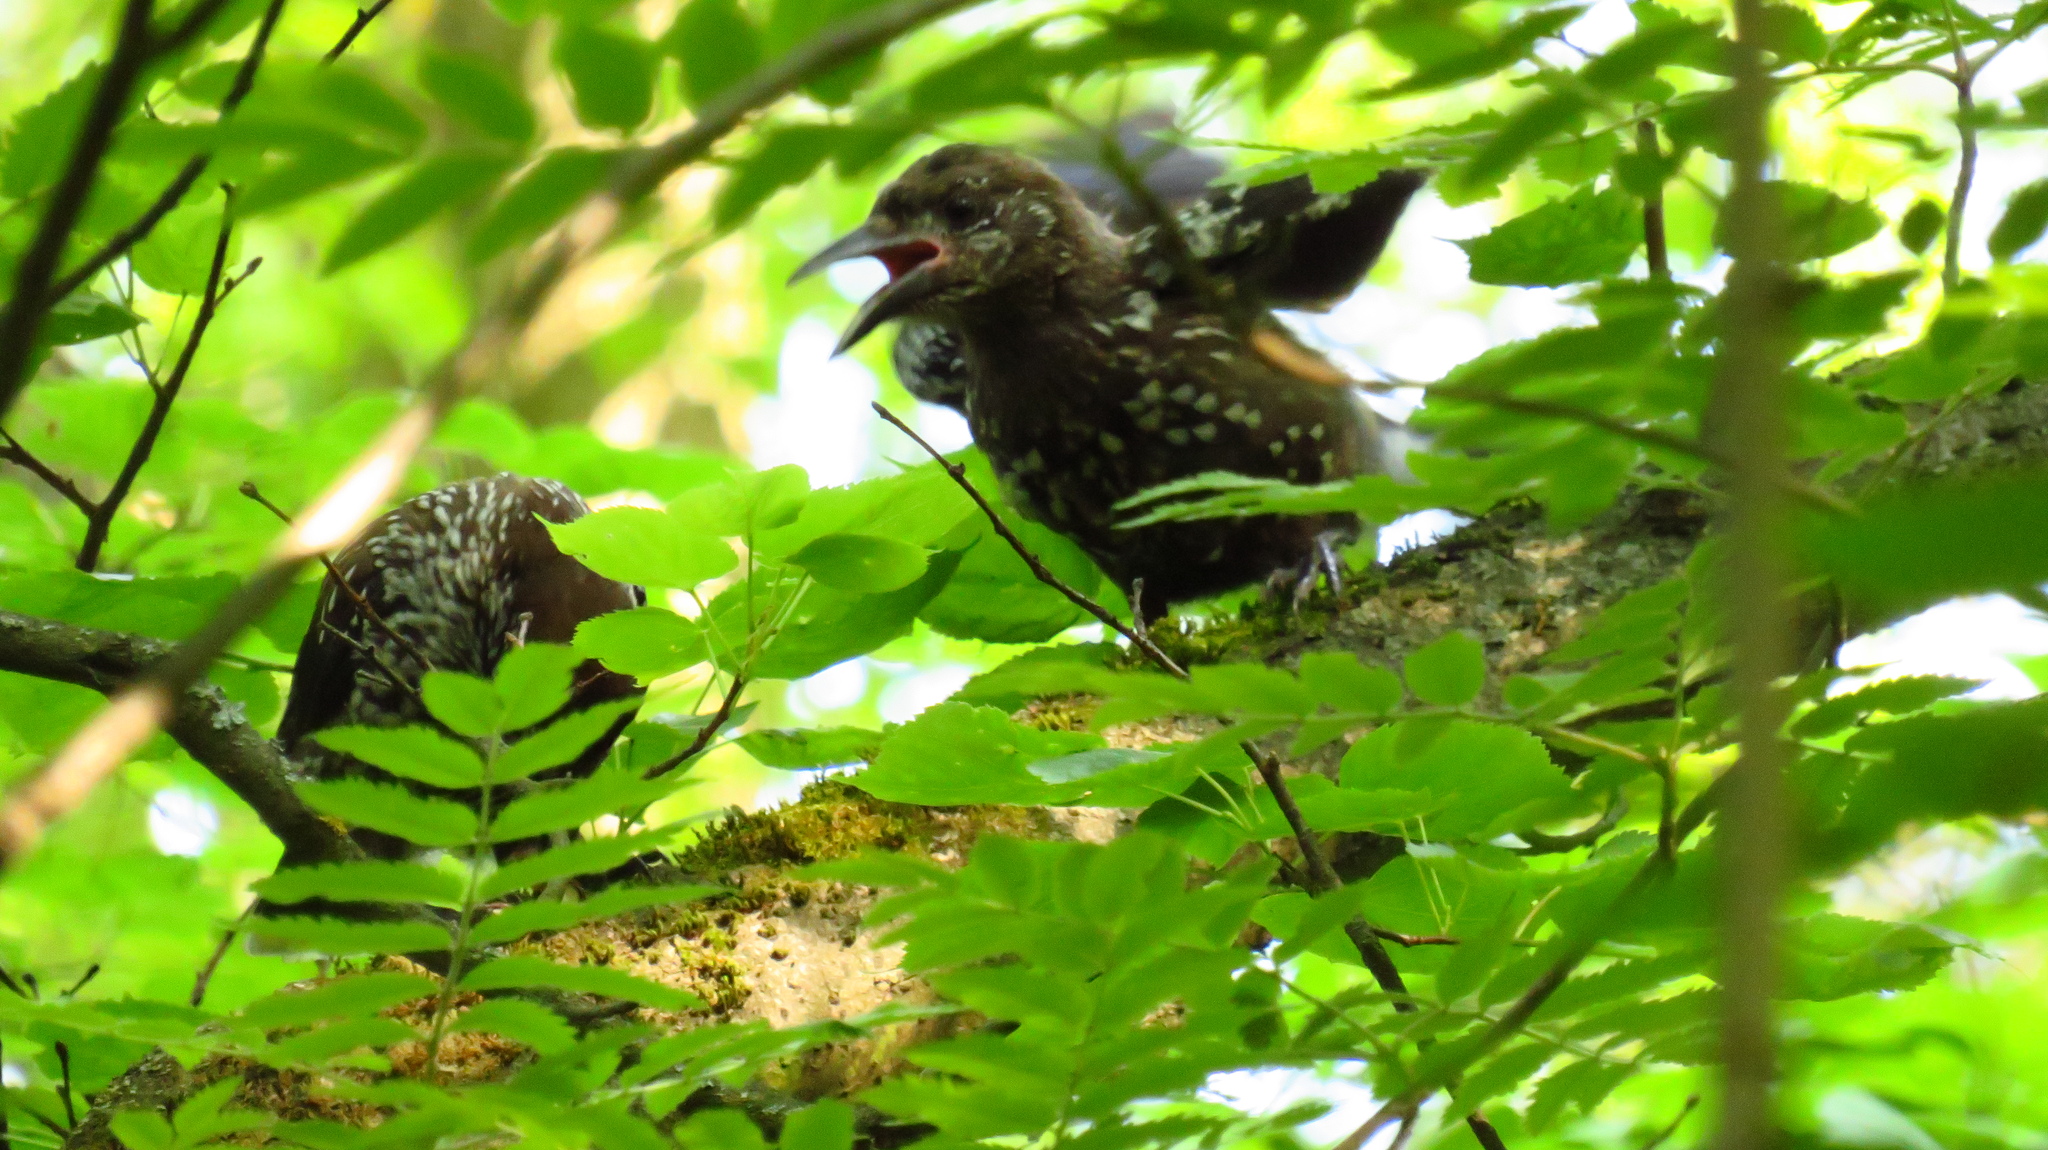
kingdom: Animalia
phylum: Chordata
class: Aves
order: Passeriformes
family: Corvidae
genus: Nucifraga
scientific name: Nucifraga caryocatactes
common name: Spotted nutcracker
